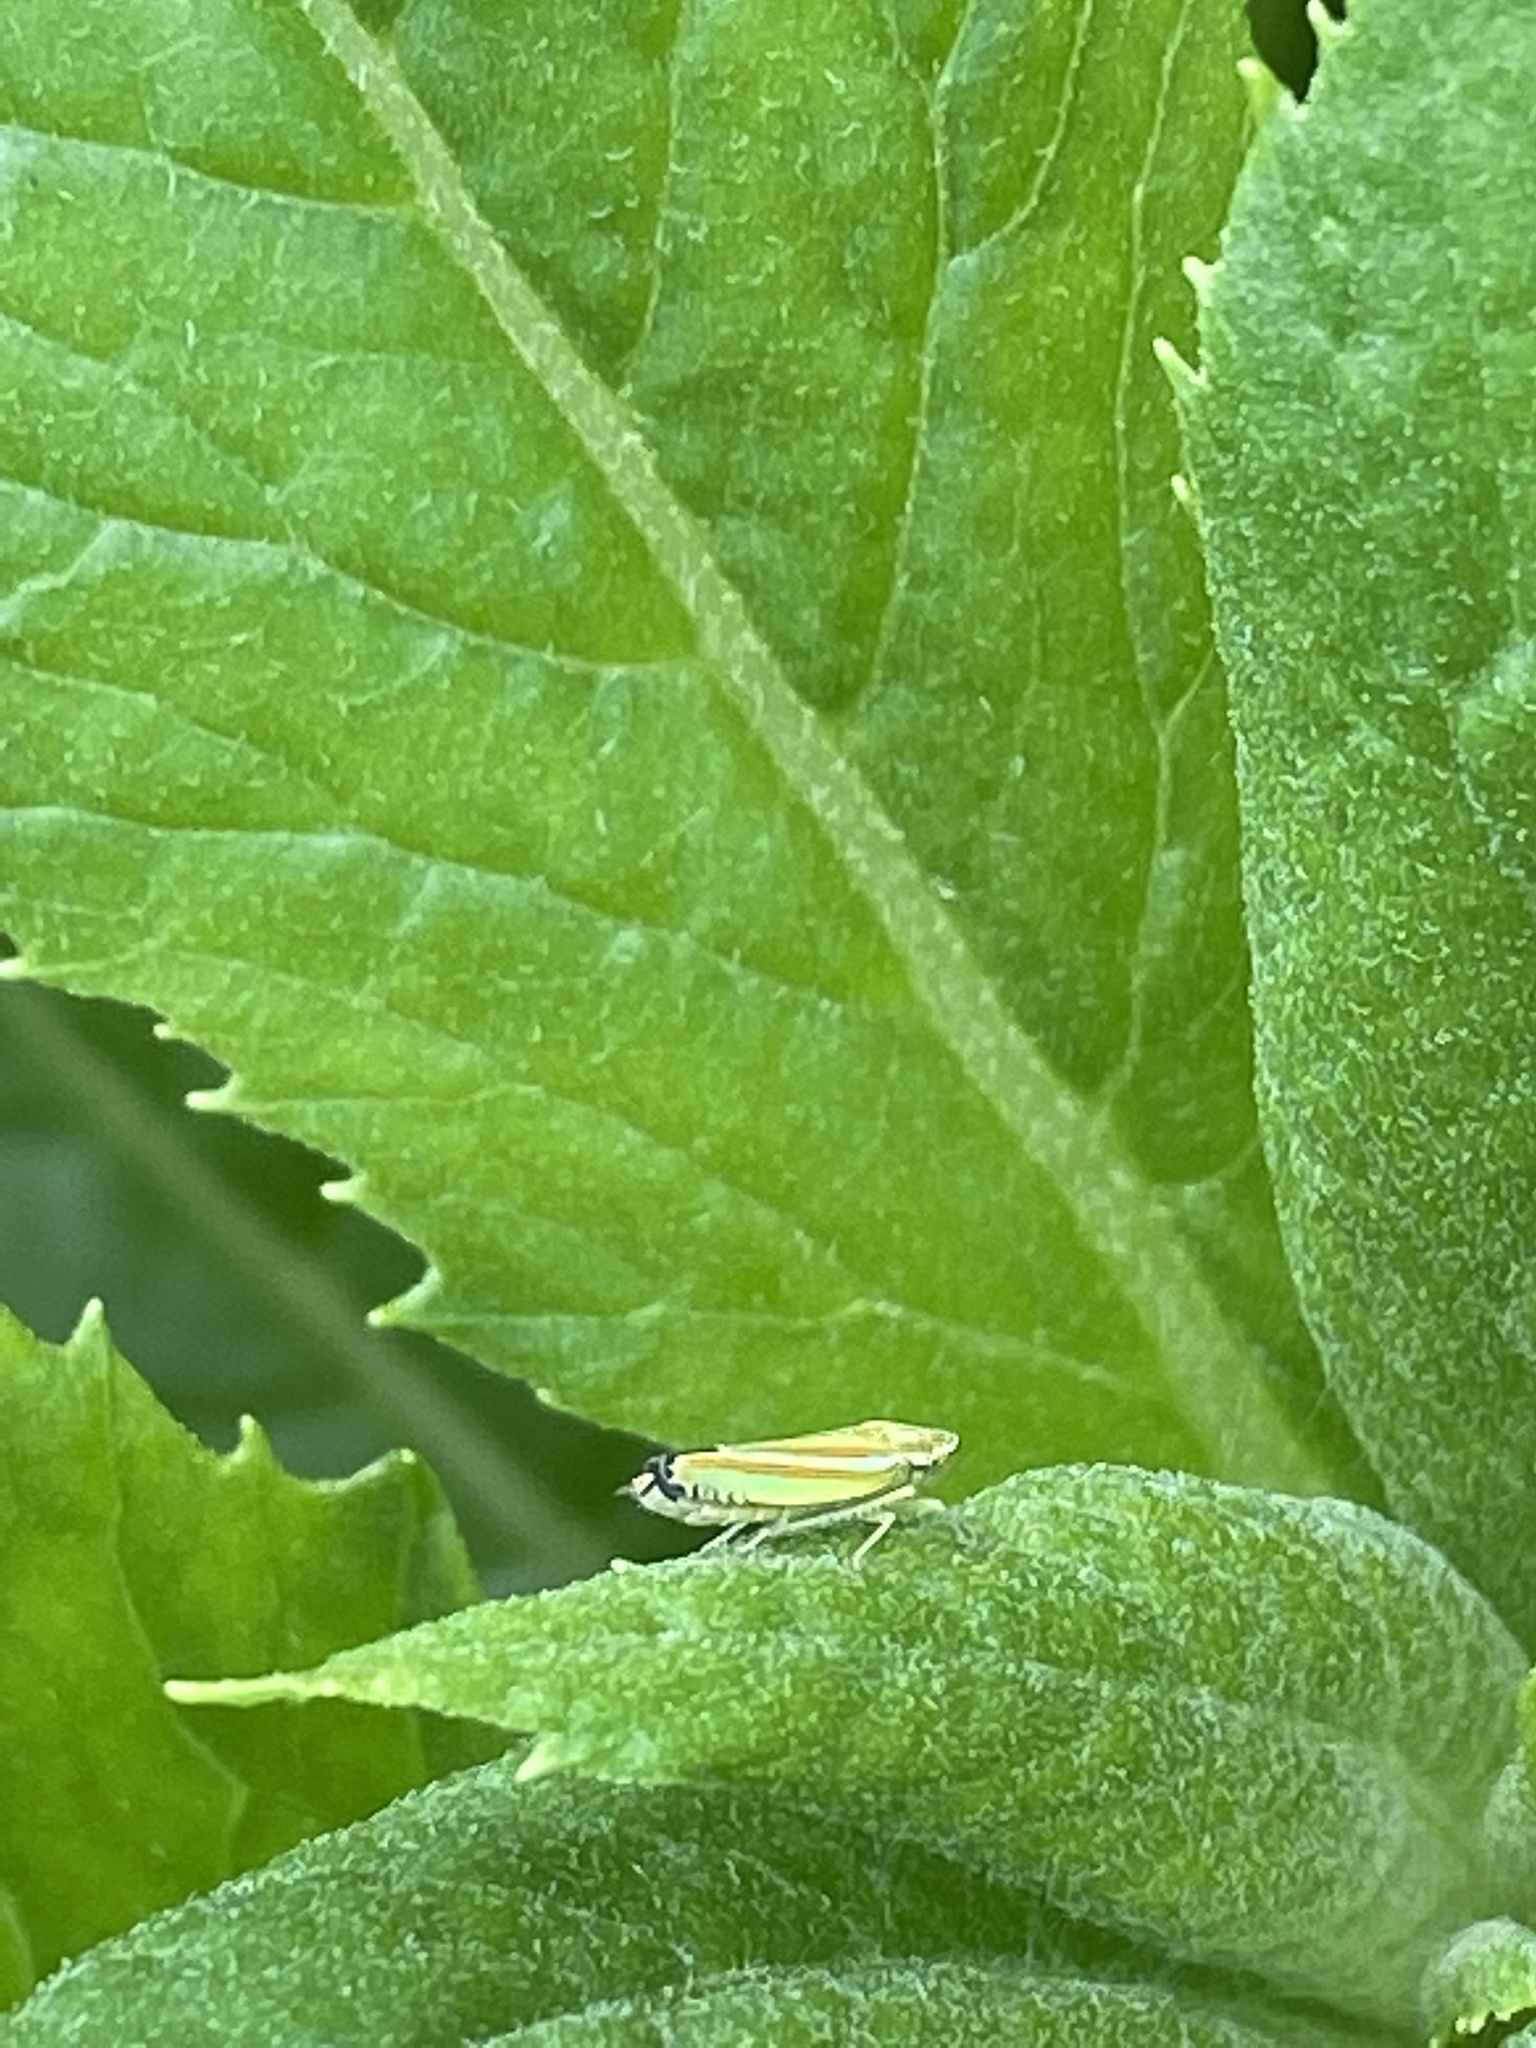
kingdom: Animalia
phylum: Arthropoda
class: Insecta
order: Hemiptera
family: Cicadellidae
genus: Graphocephala
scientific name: Graphocephala versuta
